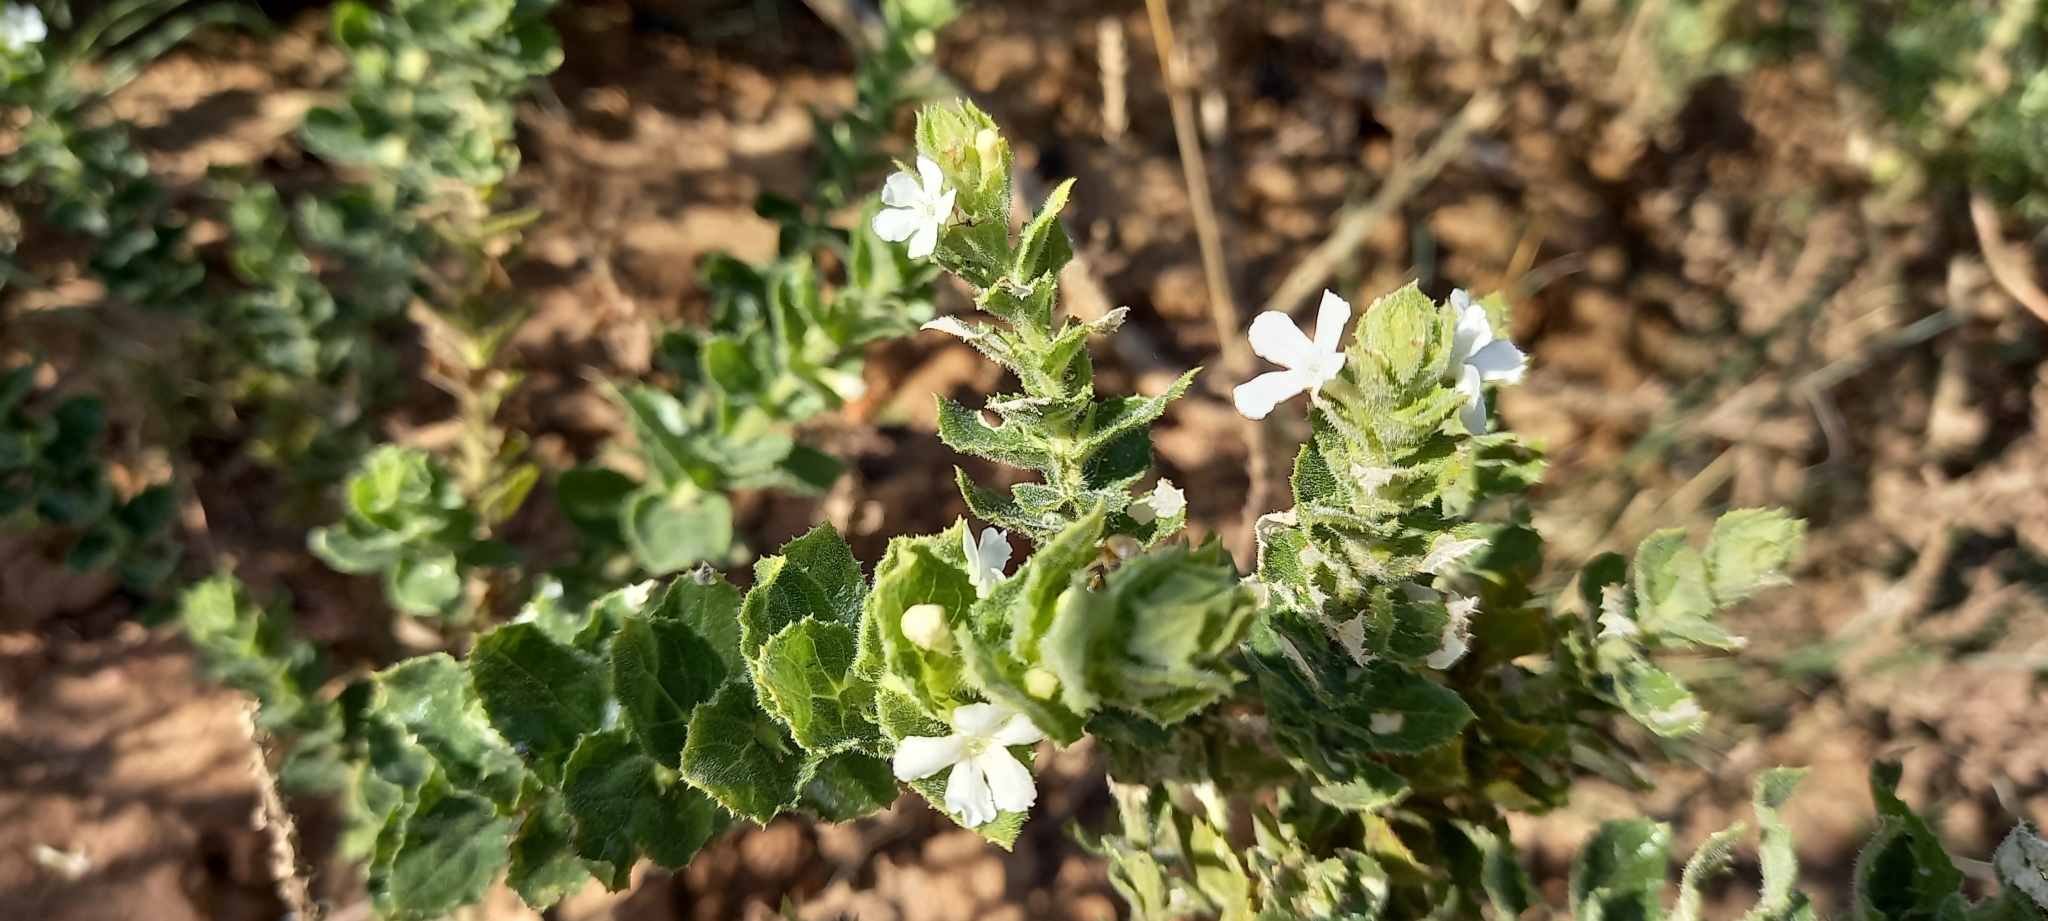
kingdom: Plantae
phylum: Tracheophyta
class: Magnoliopsida
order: Lamiales
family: Scrophulariaceae
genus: Oftia
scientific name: Oftia africana
